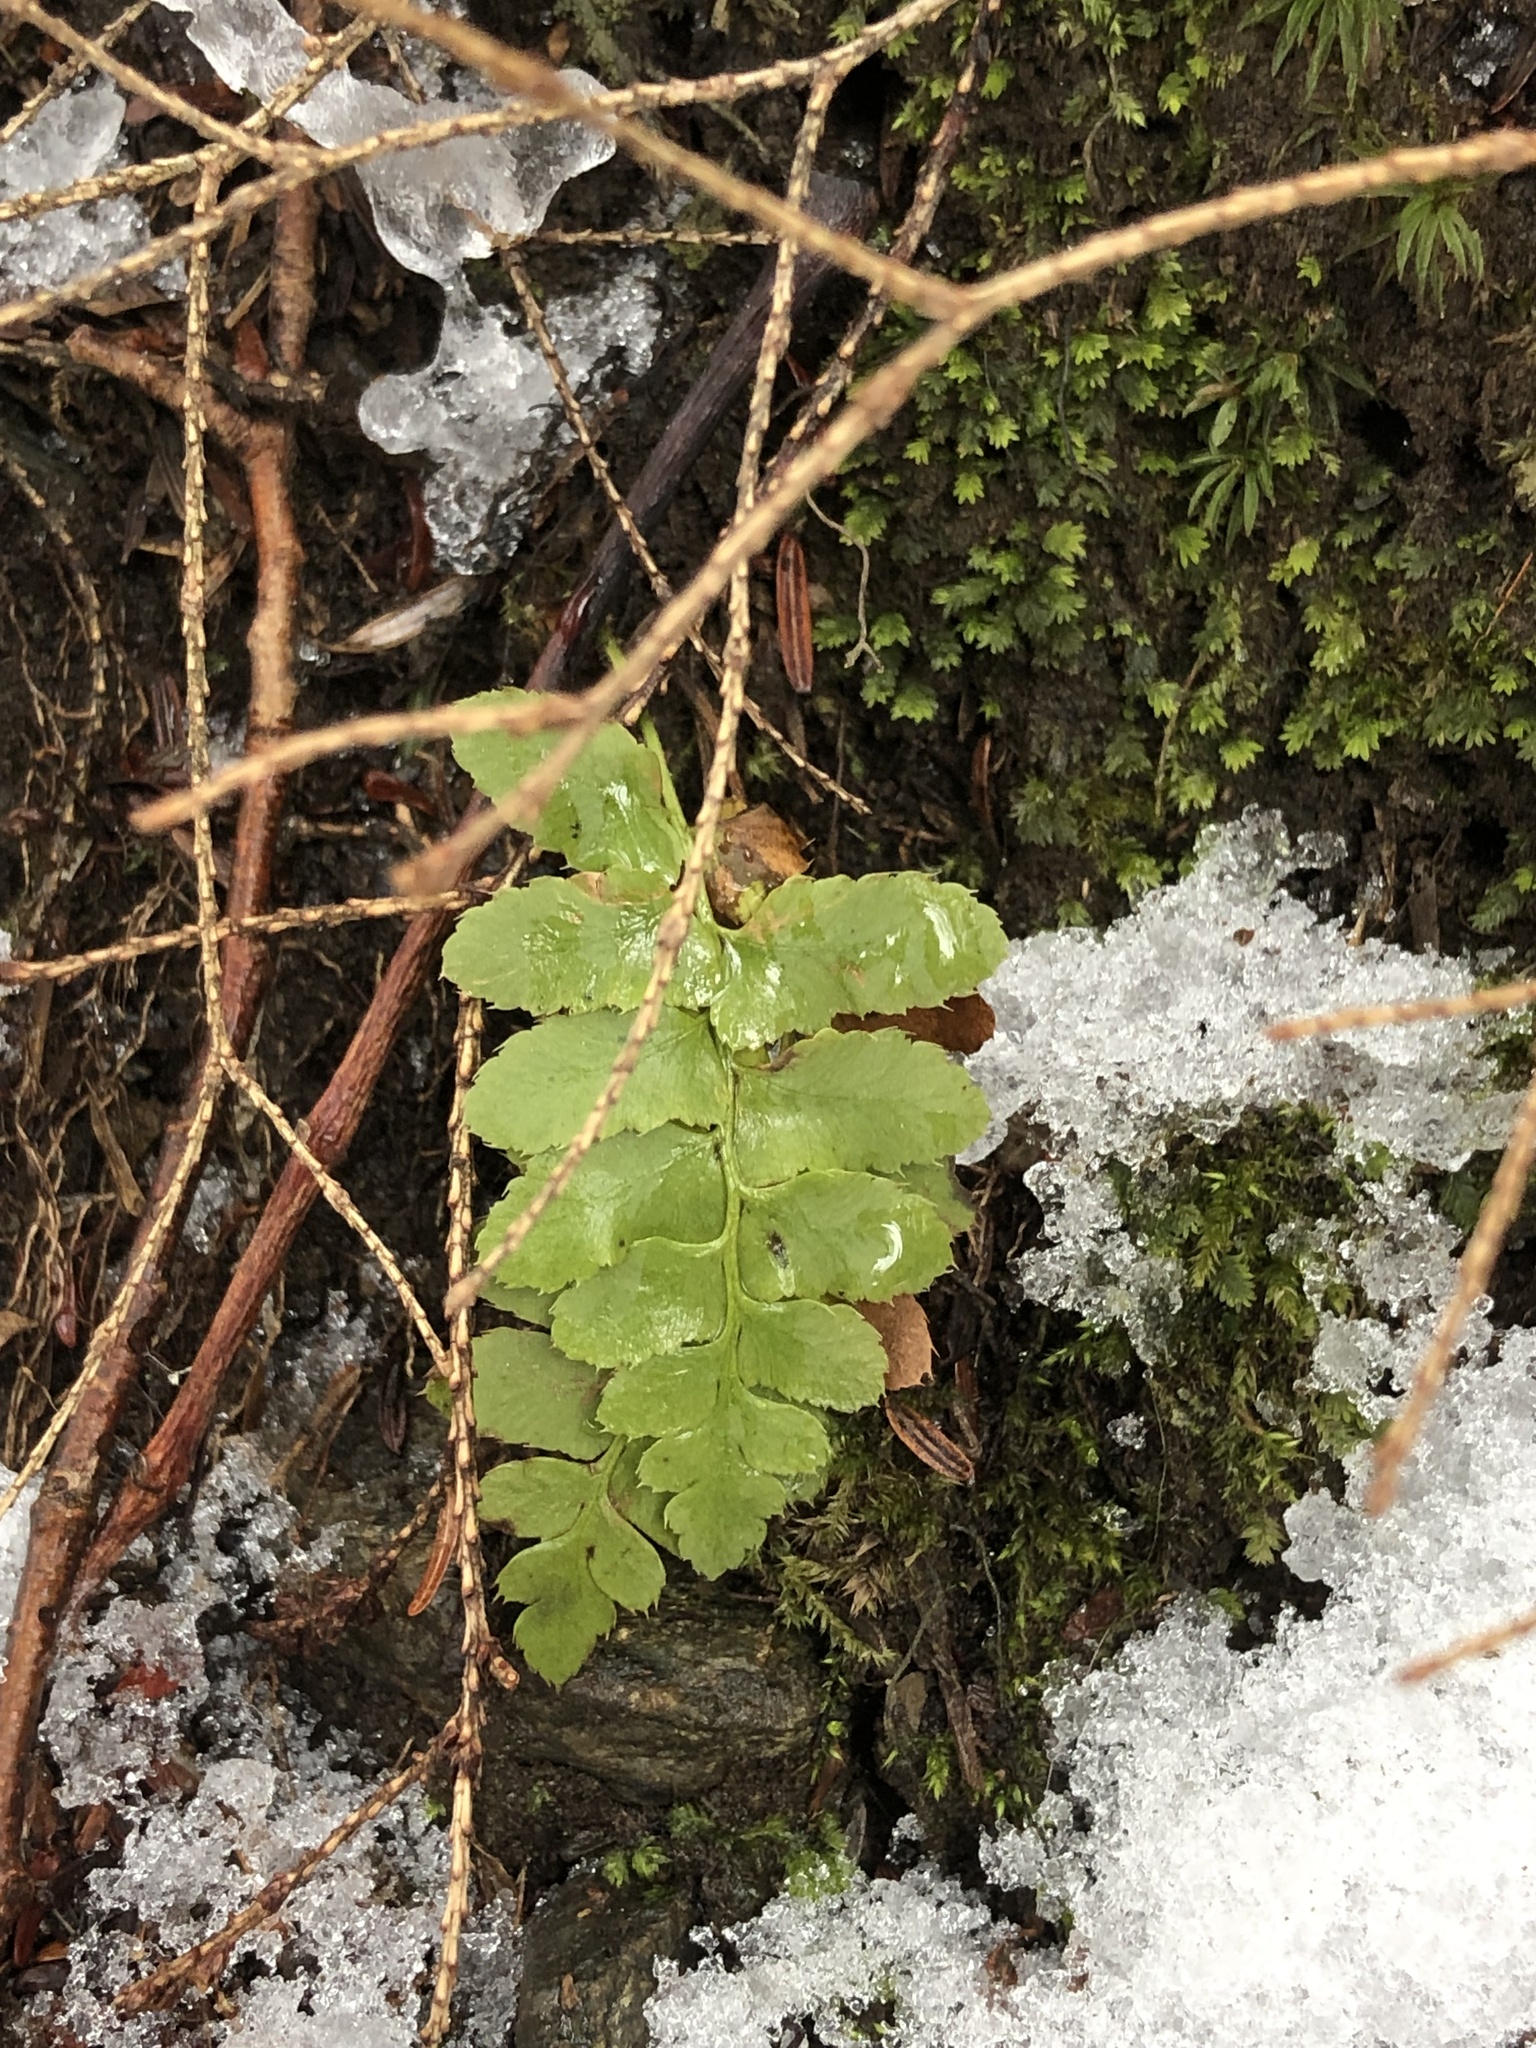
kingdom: Plantae
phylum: Tracheophyta
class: Polypodiopsida
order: Polypodiales
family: Dryopteridaceae
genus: Polystichum
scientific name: Polystichum acrostichoides
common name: Christmas fern
